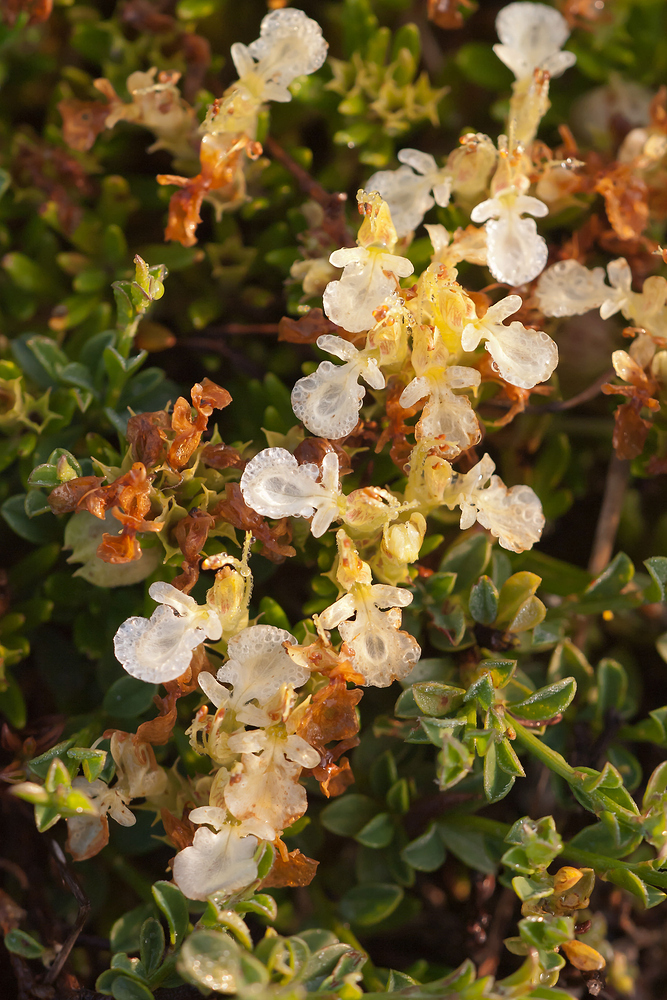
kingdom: Plantae
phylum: Tracheophyta
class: Magnoliopsida
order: Lamiales
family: Lamiaceae
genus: Teucrium
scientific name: Teucrium montanum
